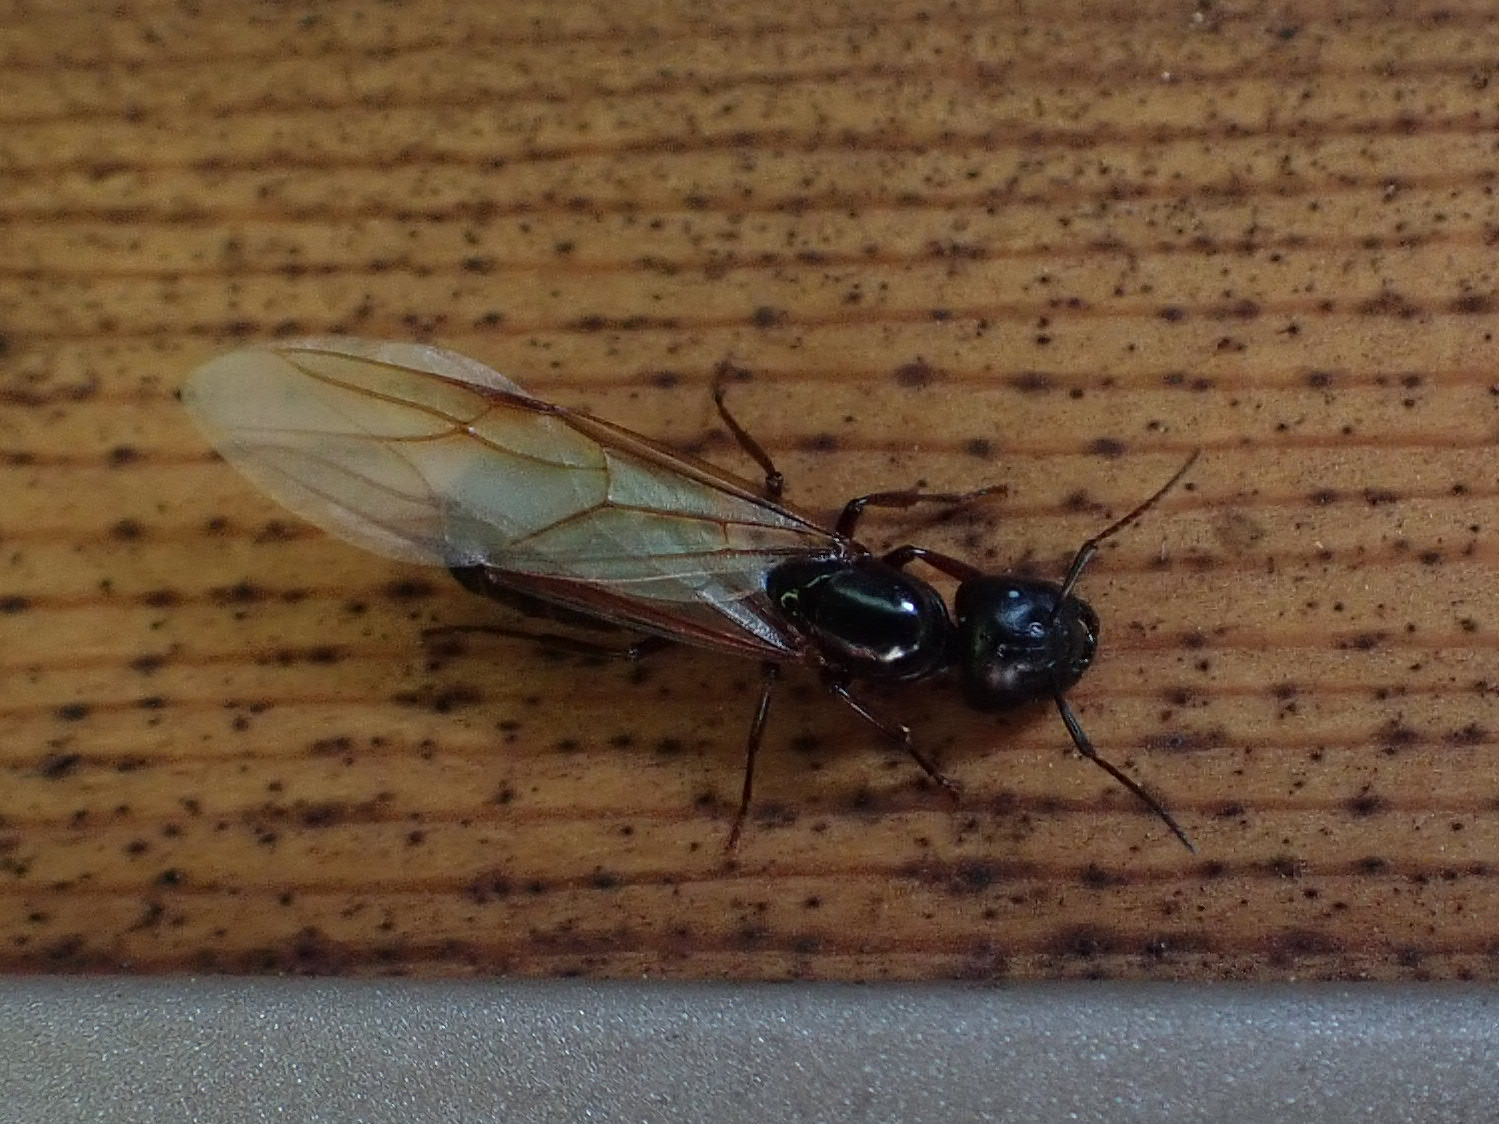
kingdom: Animalia
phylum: Arthropoda
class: Insecta
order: Hymenoptera
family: Formicidae
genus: Camponotus
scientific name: Camponotus herculeanus
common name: Hercules ant
